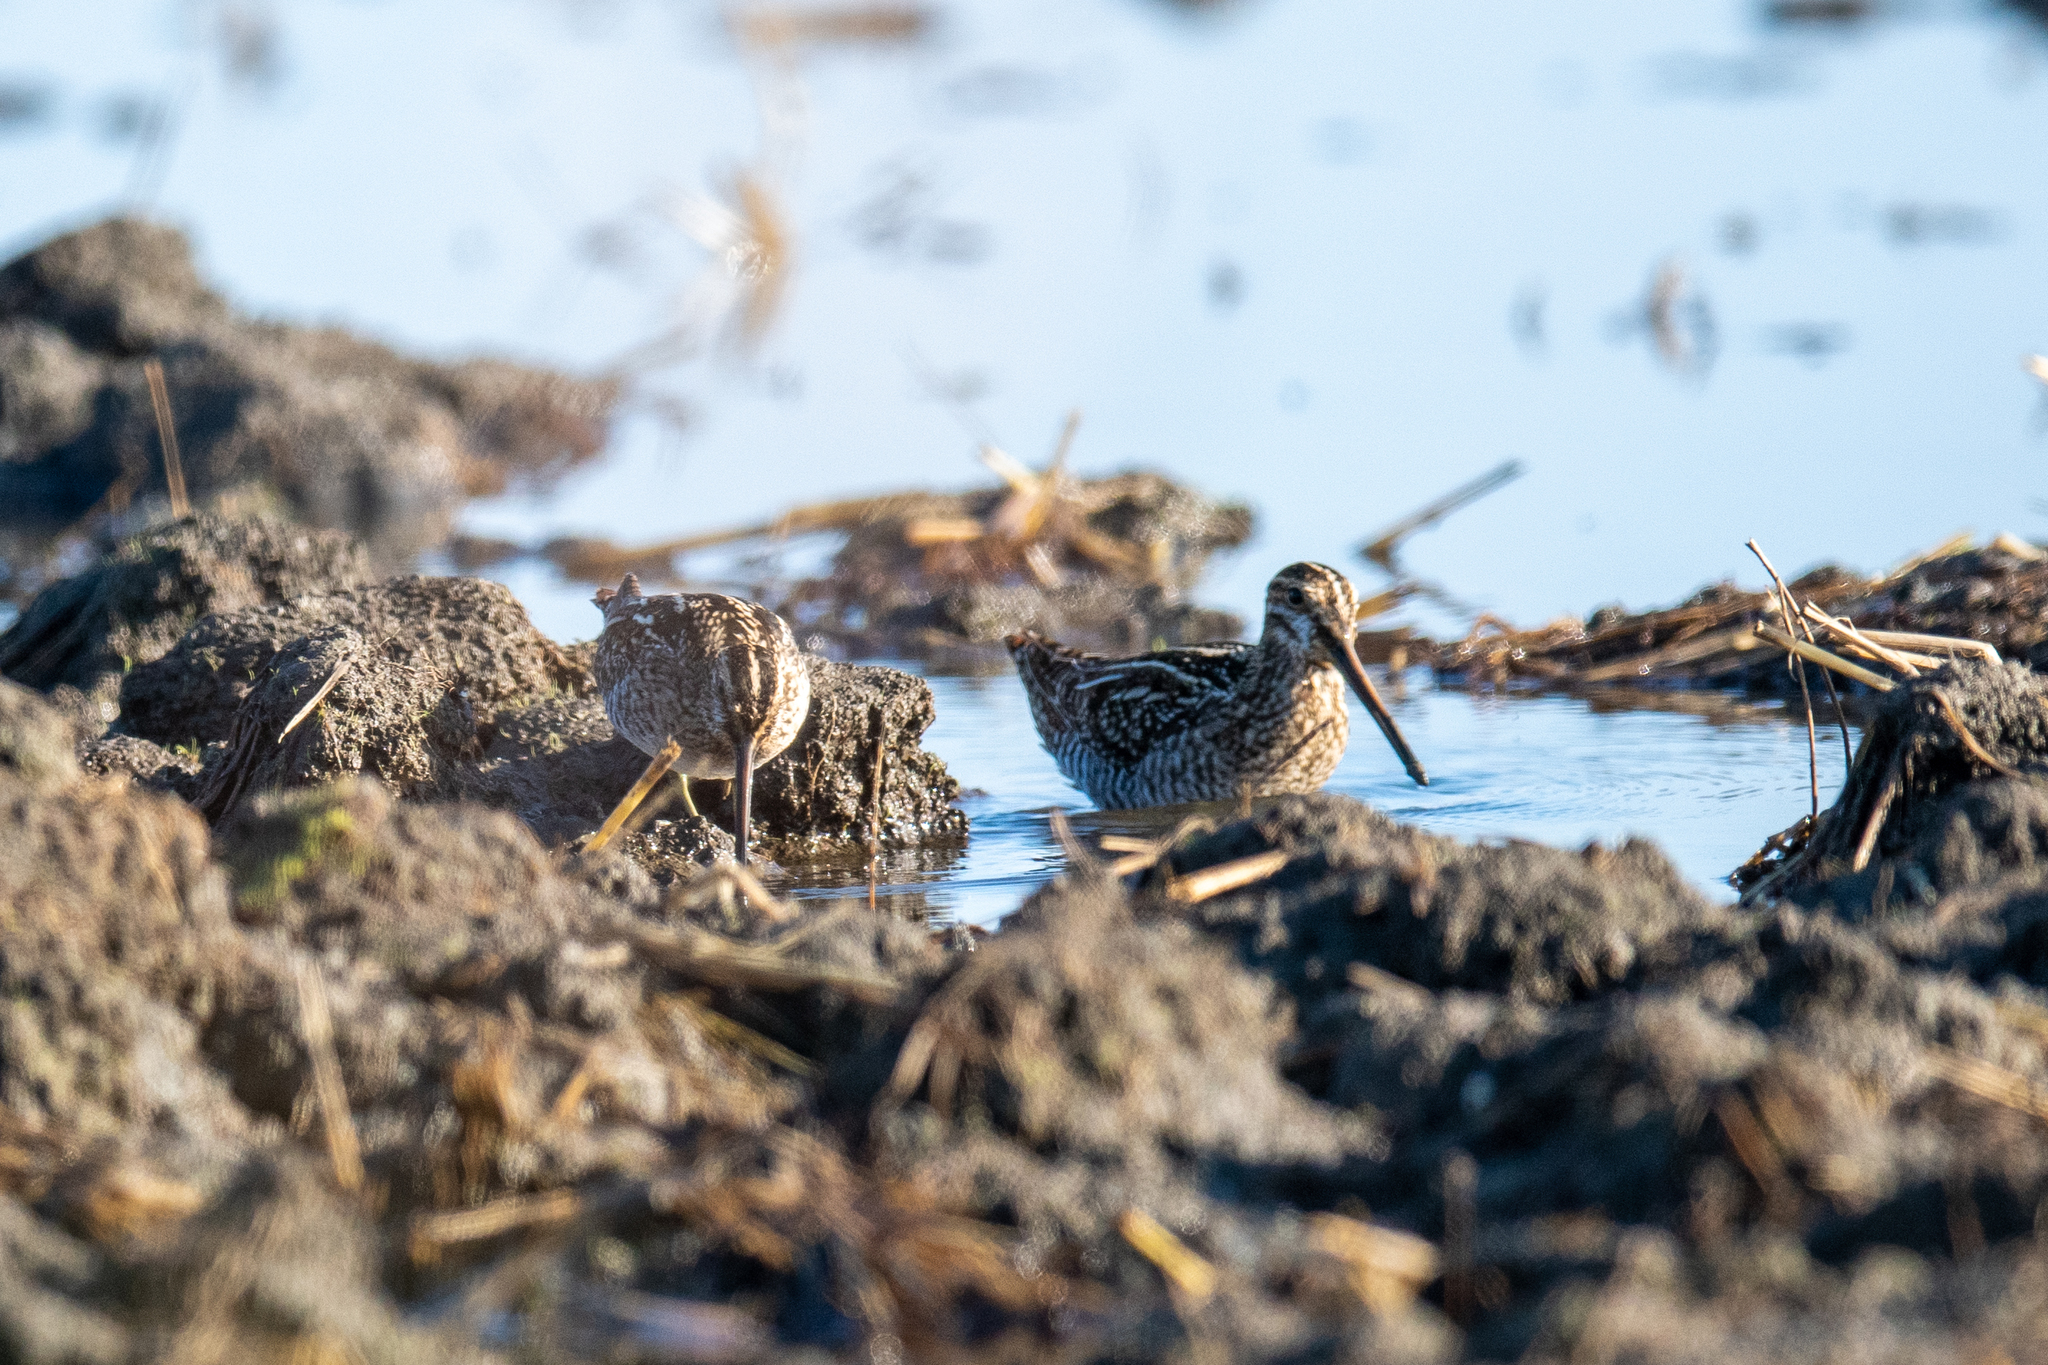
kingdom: Animalia
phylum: Chordata
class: Aves
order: Charadriiformes
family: Scolopacidae
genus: Gallinago
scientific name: Gallinago delicata
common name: Wilson's snipe
